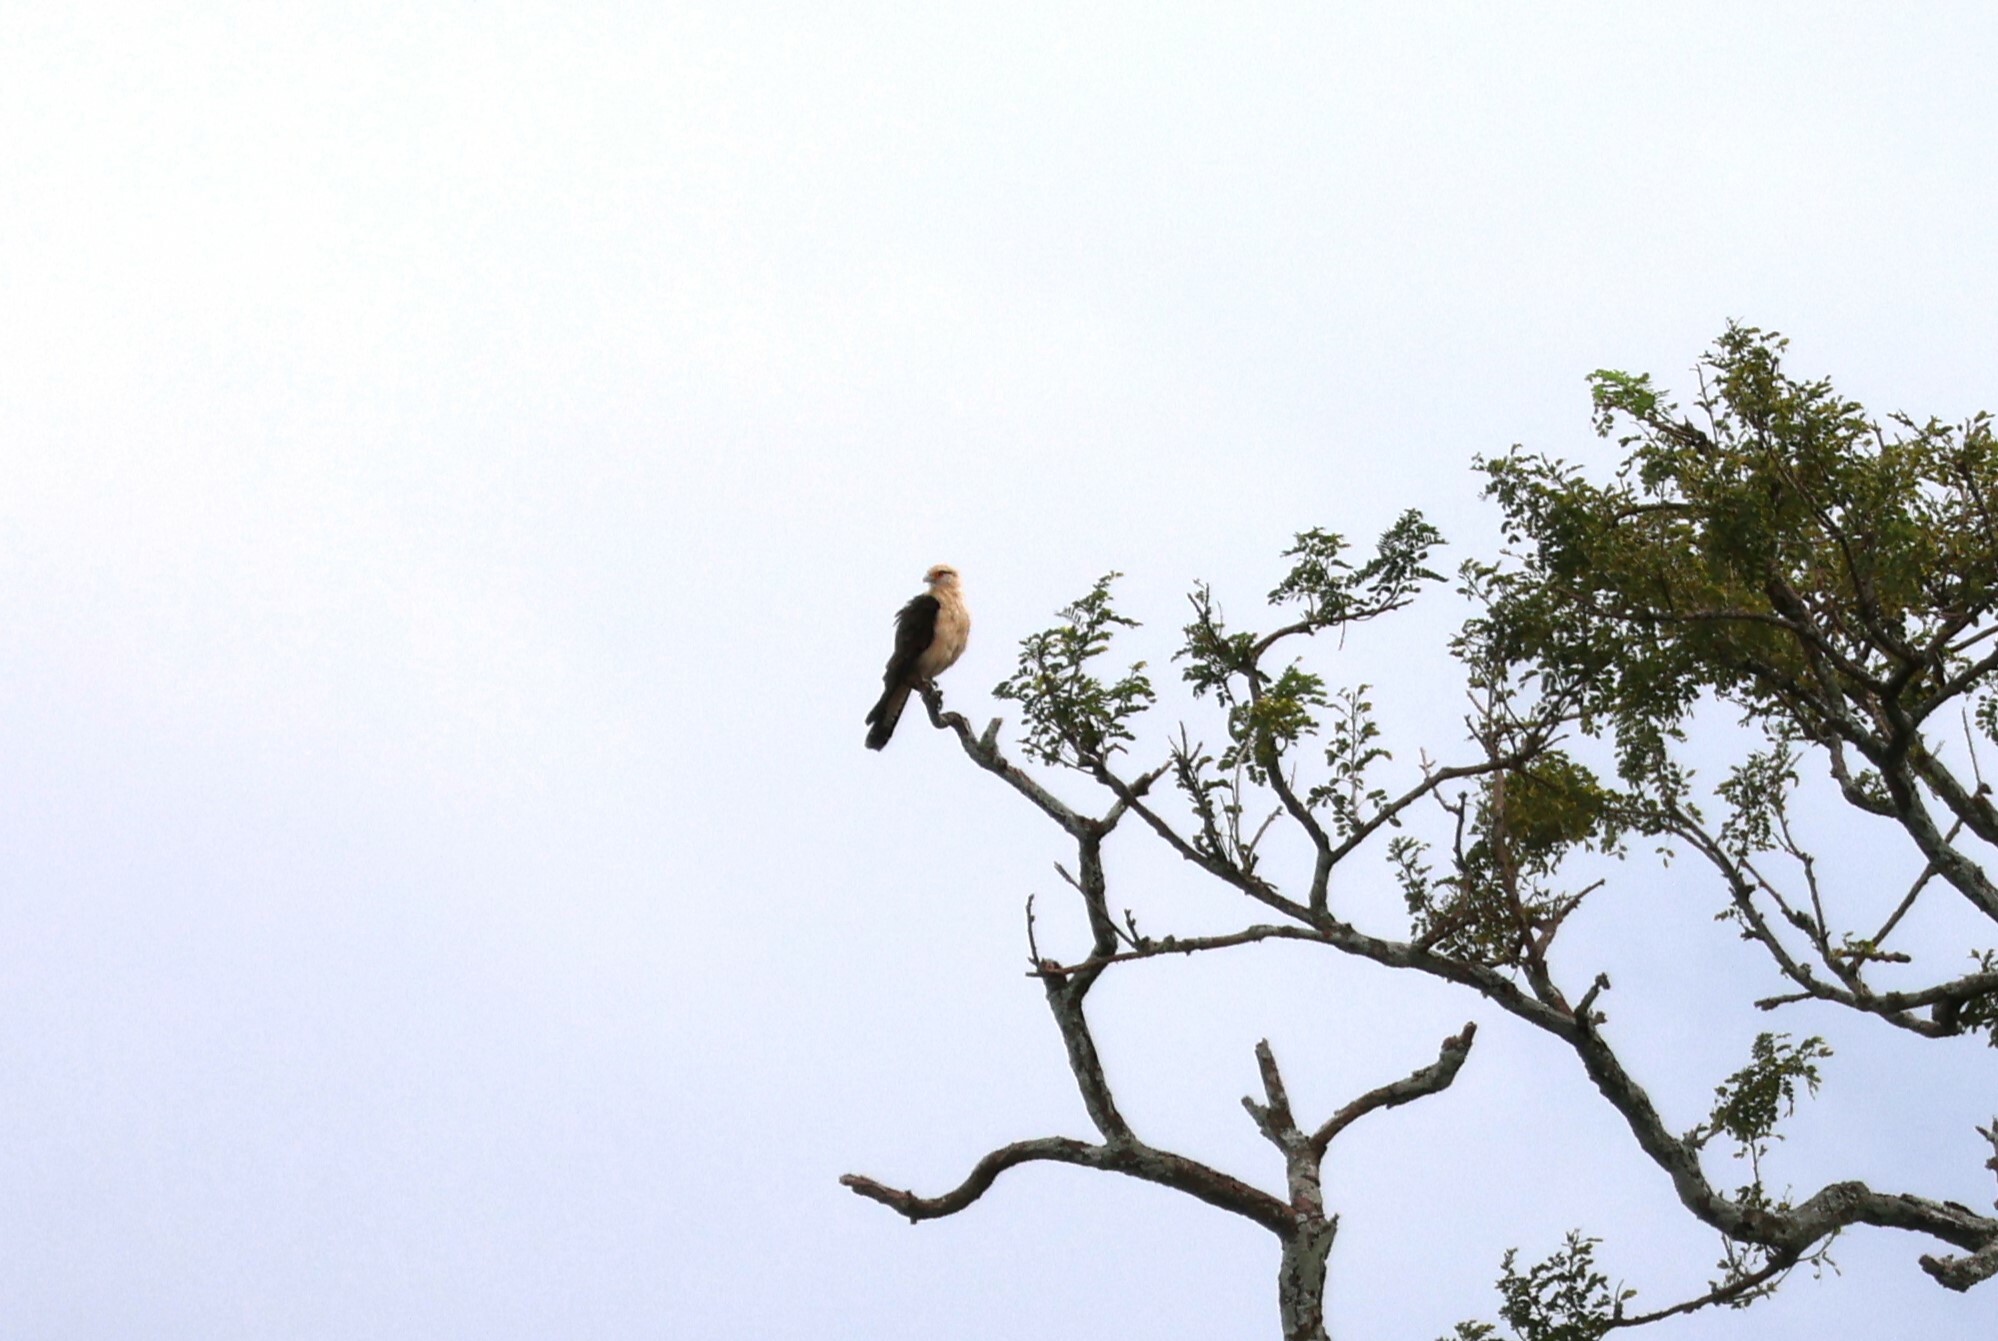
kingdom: Animalia
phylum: Chordata
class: Aves
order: Falconiformes
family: Falconidae
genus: Daptrius
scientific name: Daptrius
